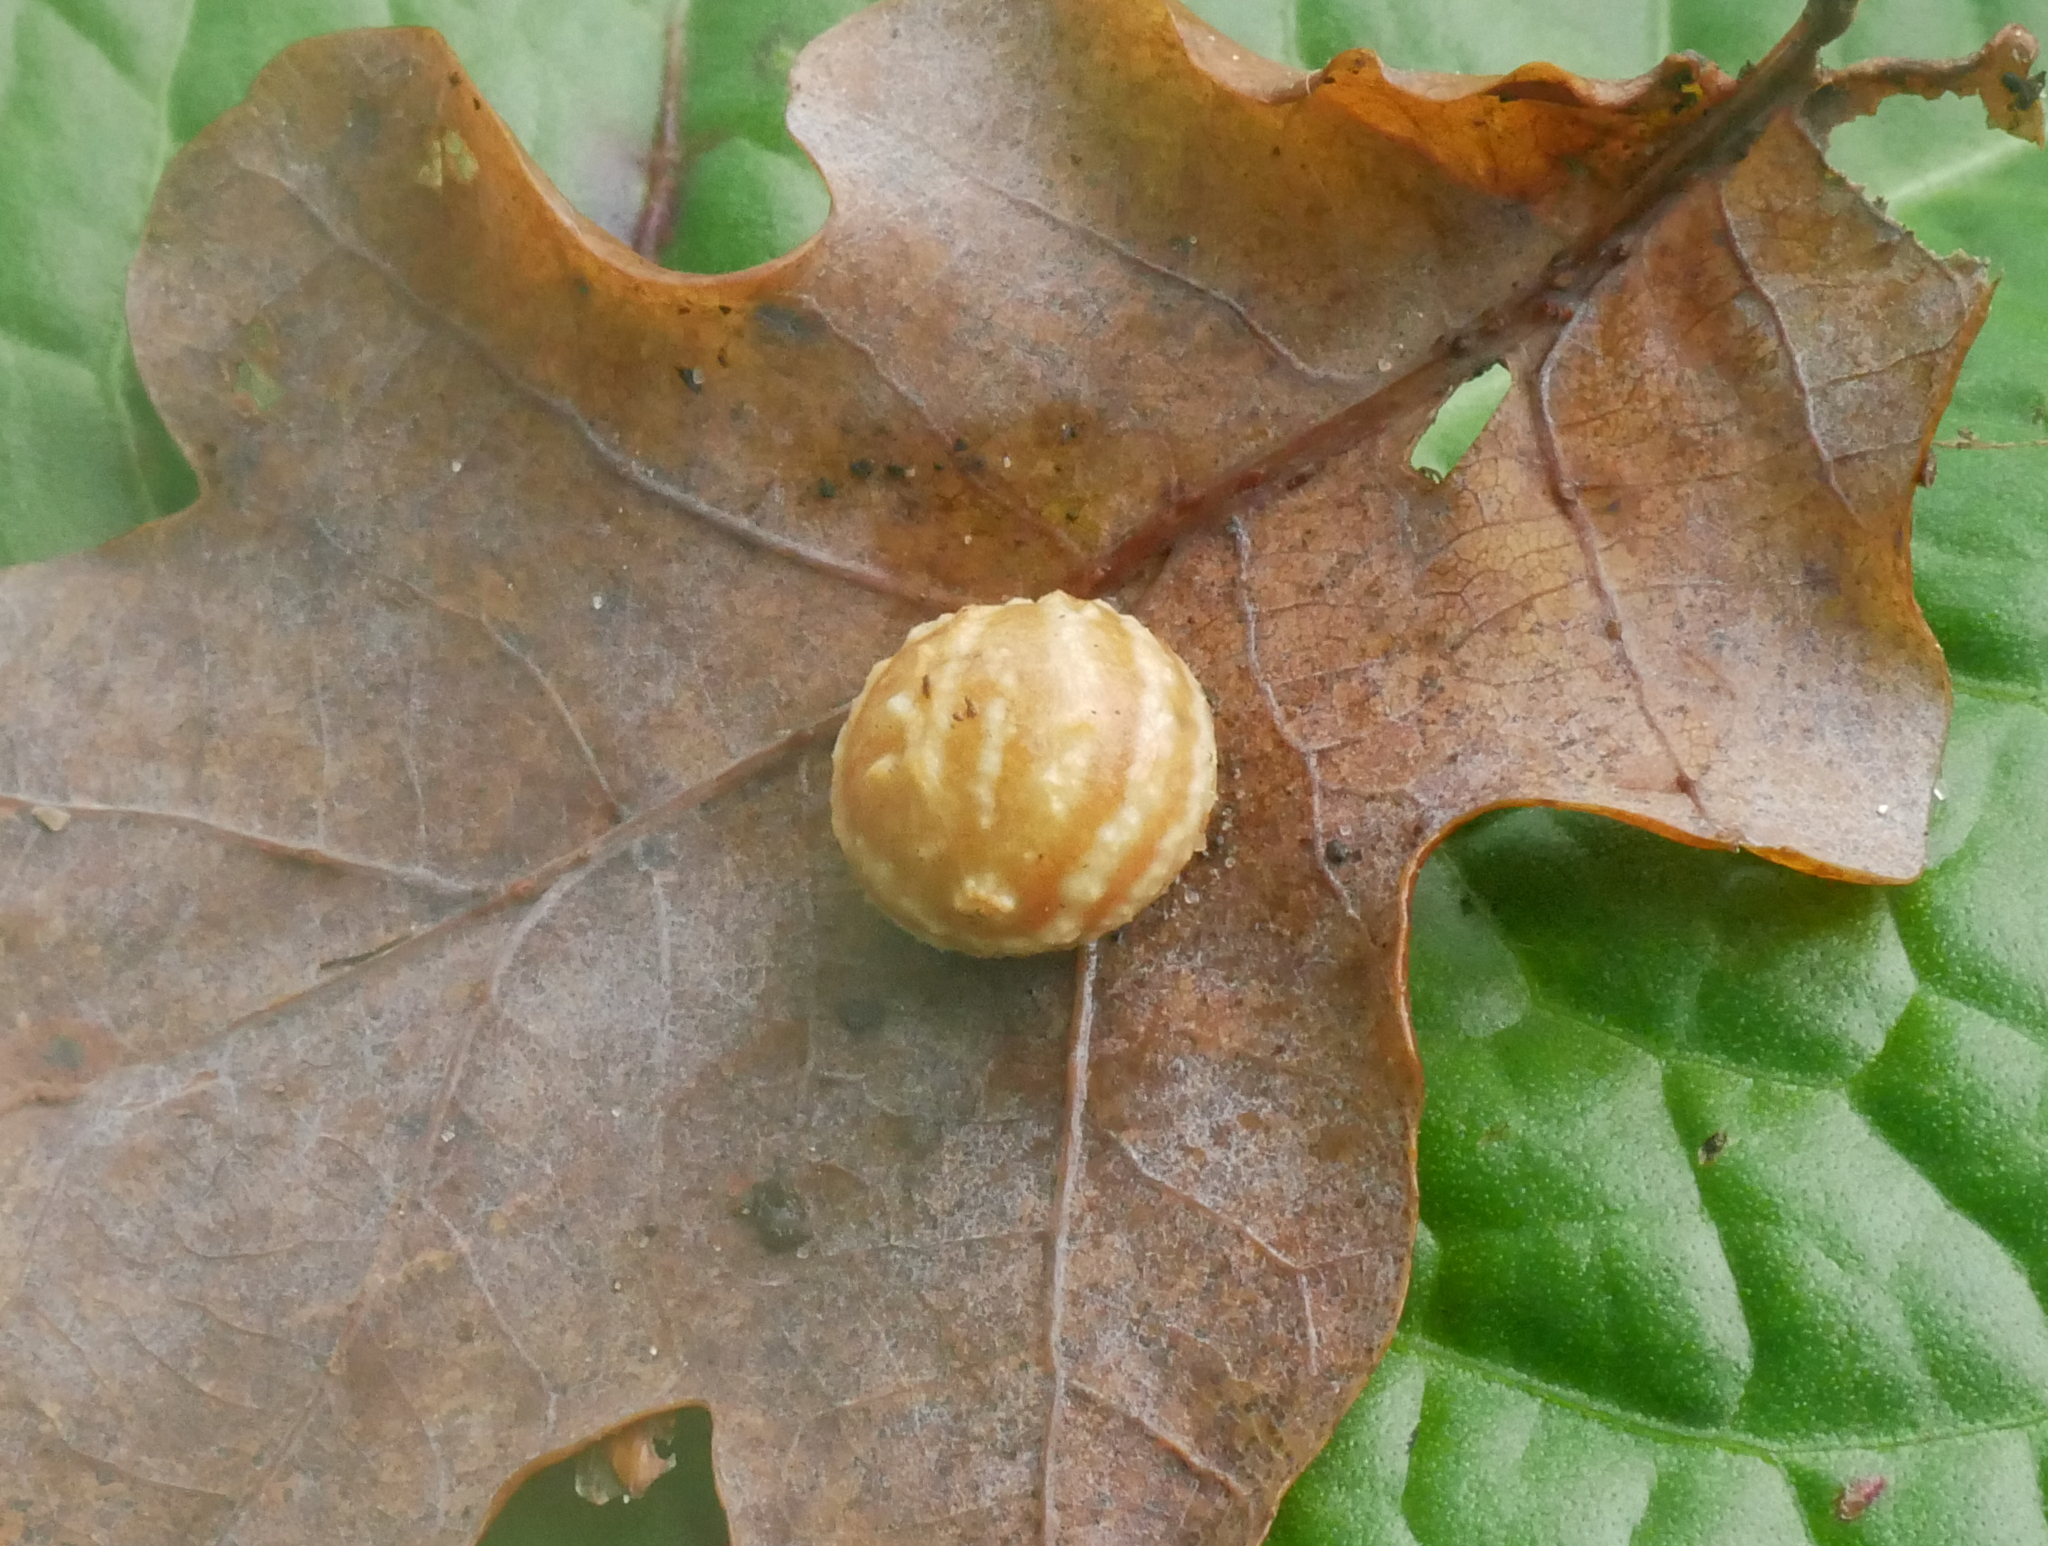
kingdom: Animalia
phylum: Arthropoda
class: Insecta
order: Hymenoptera
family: Cynipidae
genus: Cynips
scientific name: Cynips longiventris
